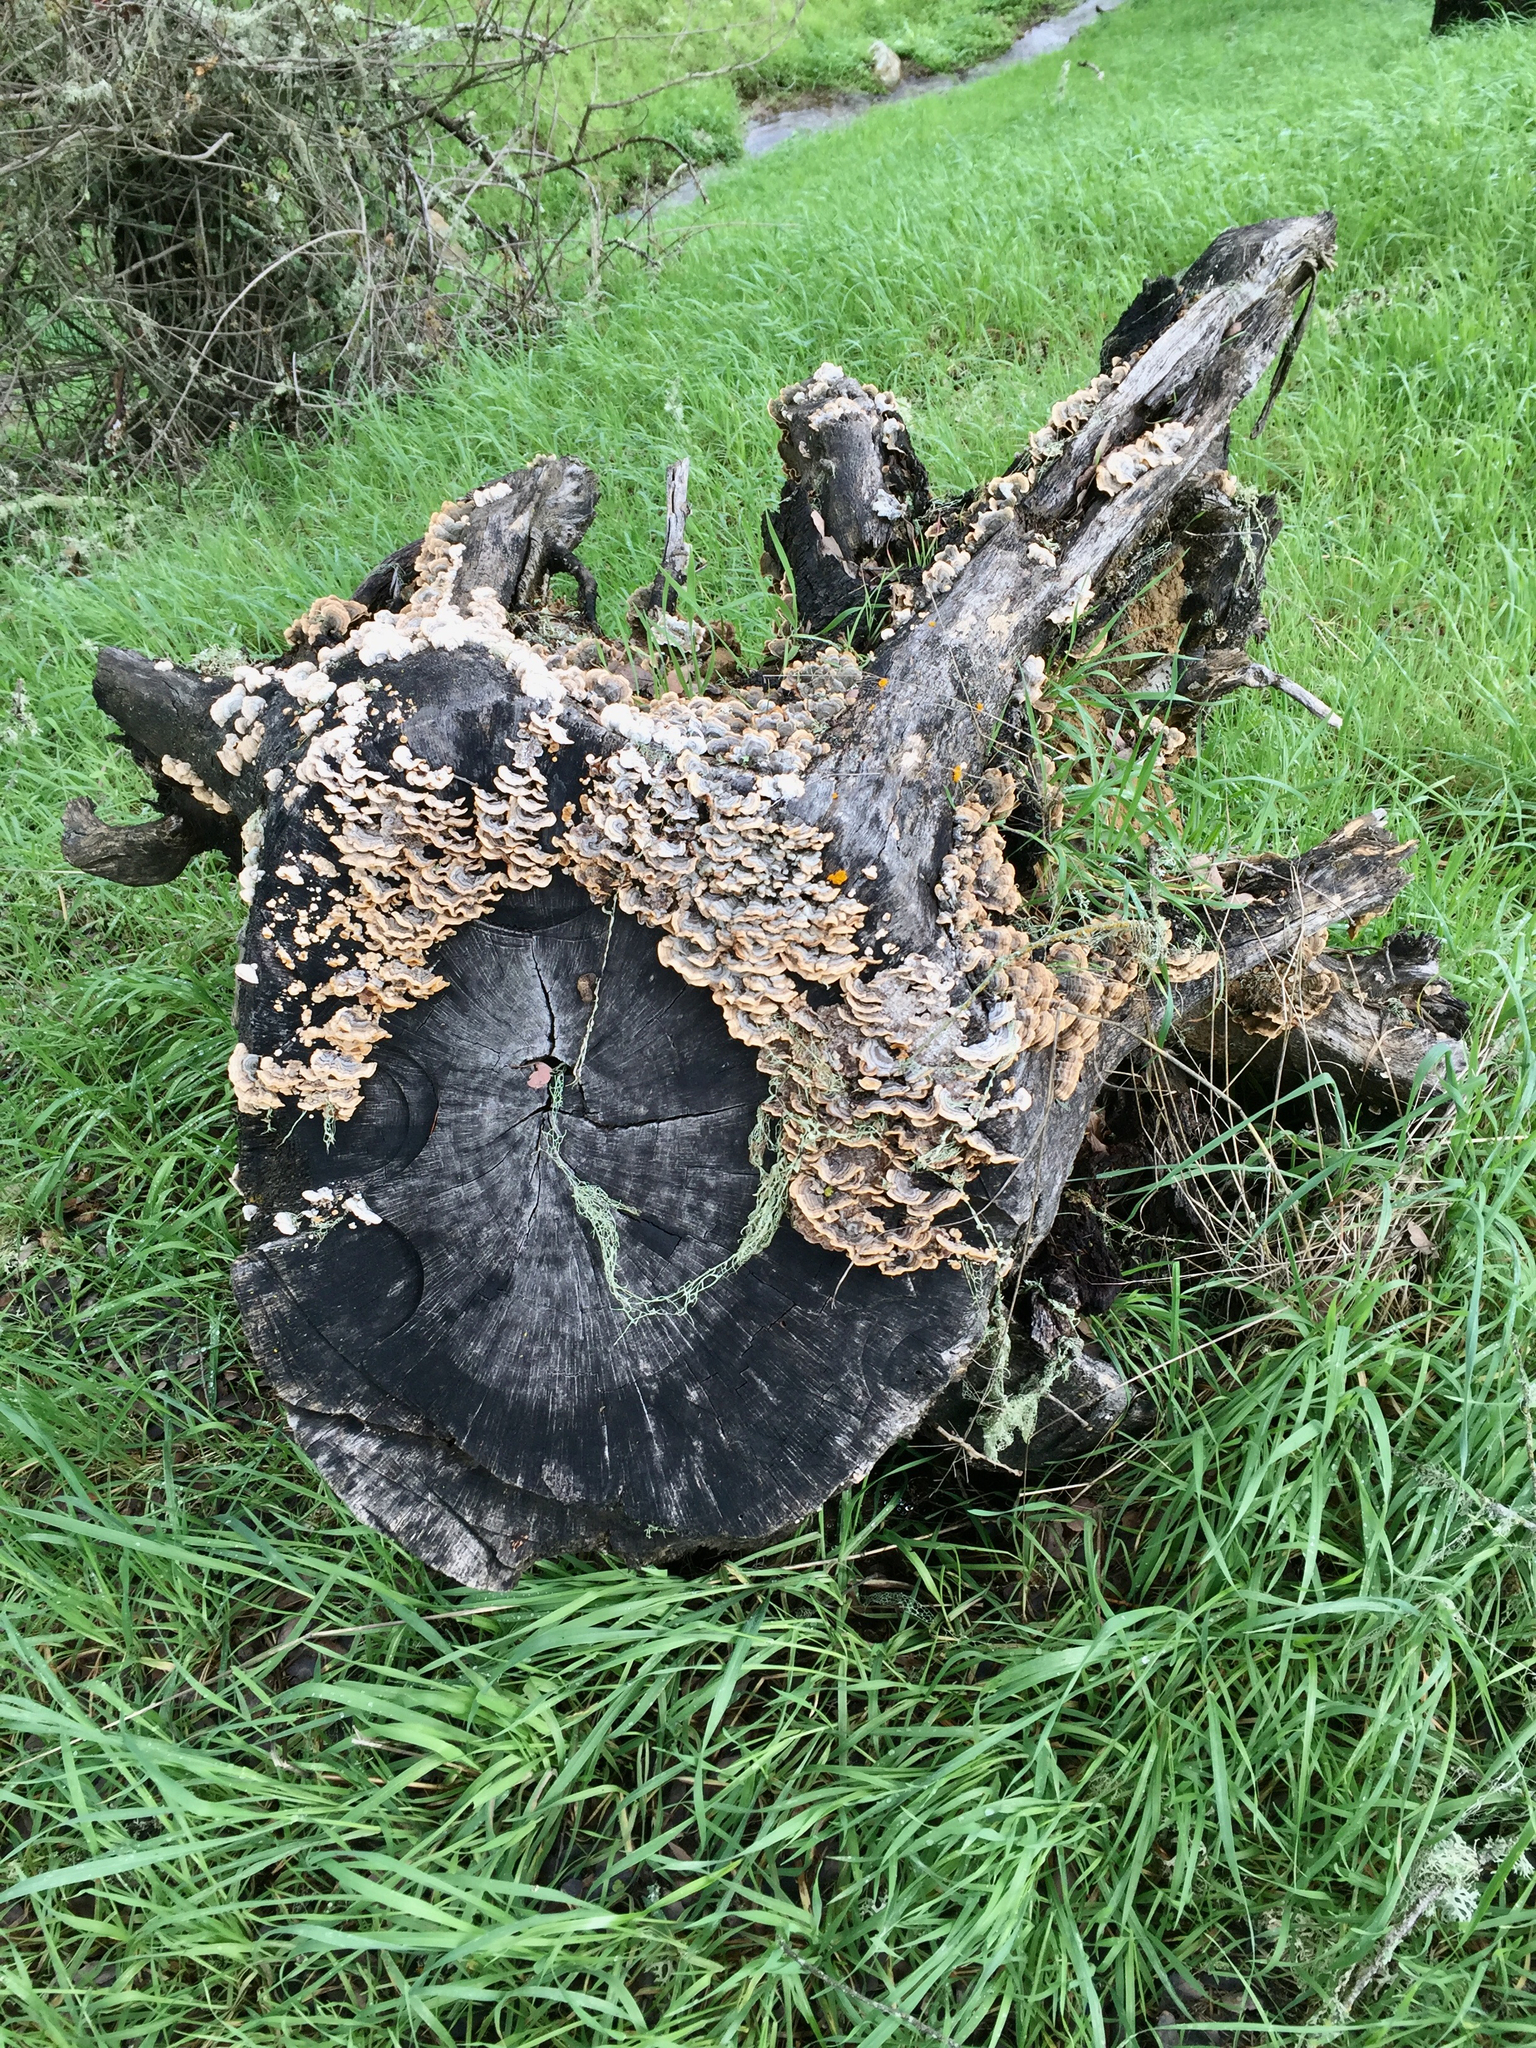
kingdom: Fungi
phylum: Basidiomycota
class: Agaricomycetes
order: Russulales
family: Stereaceae
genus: Stereum
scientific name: Stereum hirsutum
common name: Hairy curtain crust
